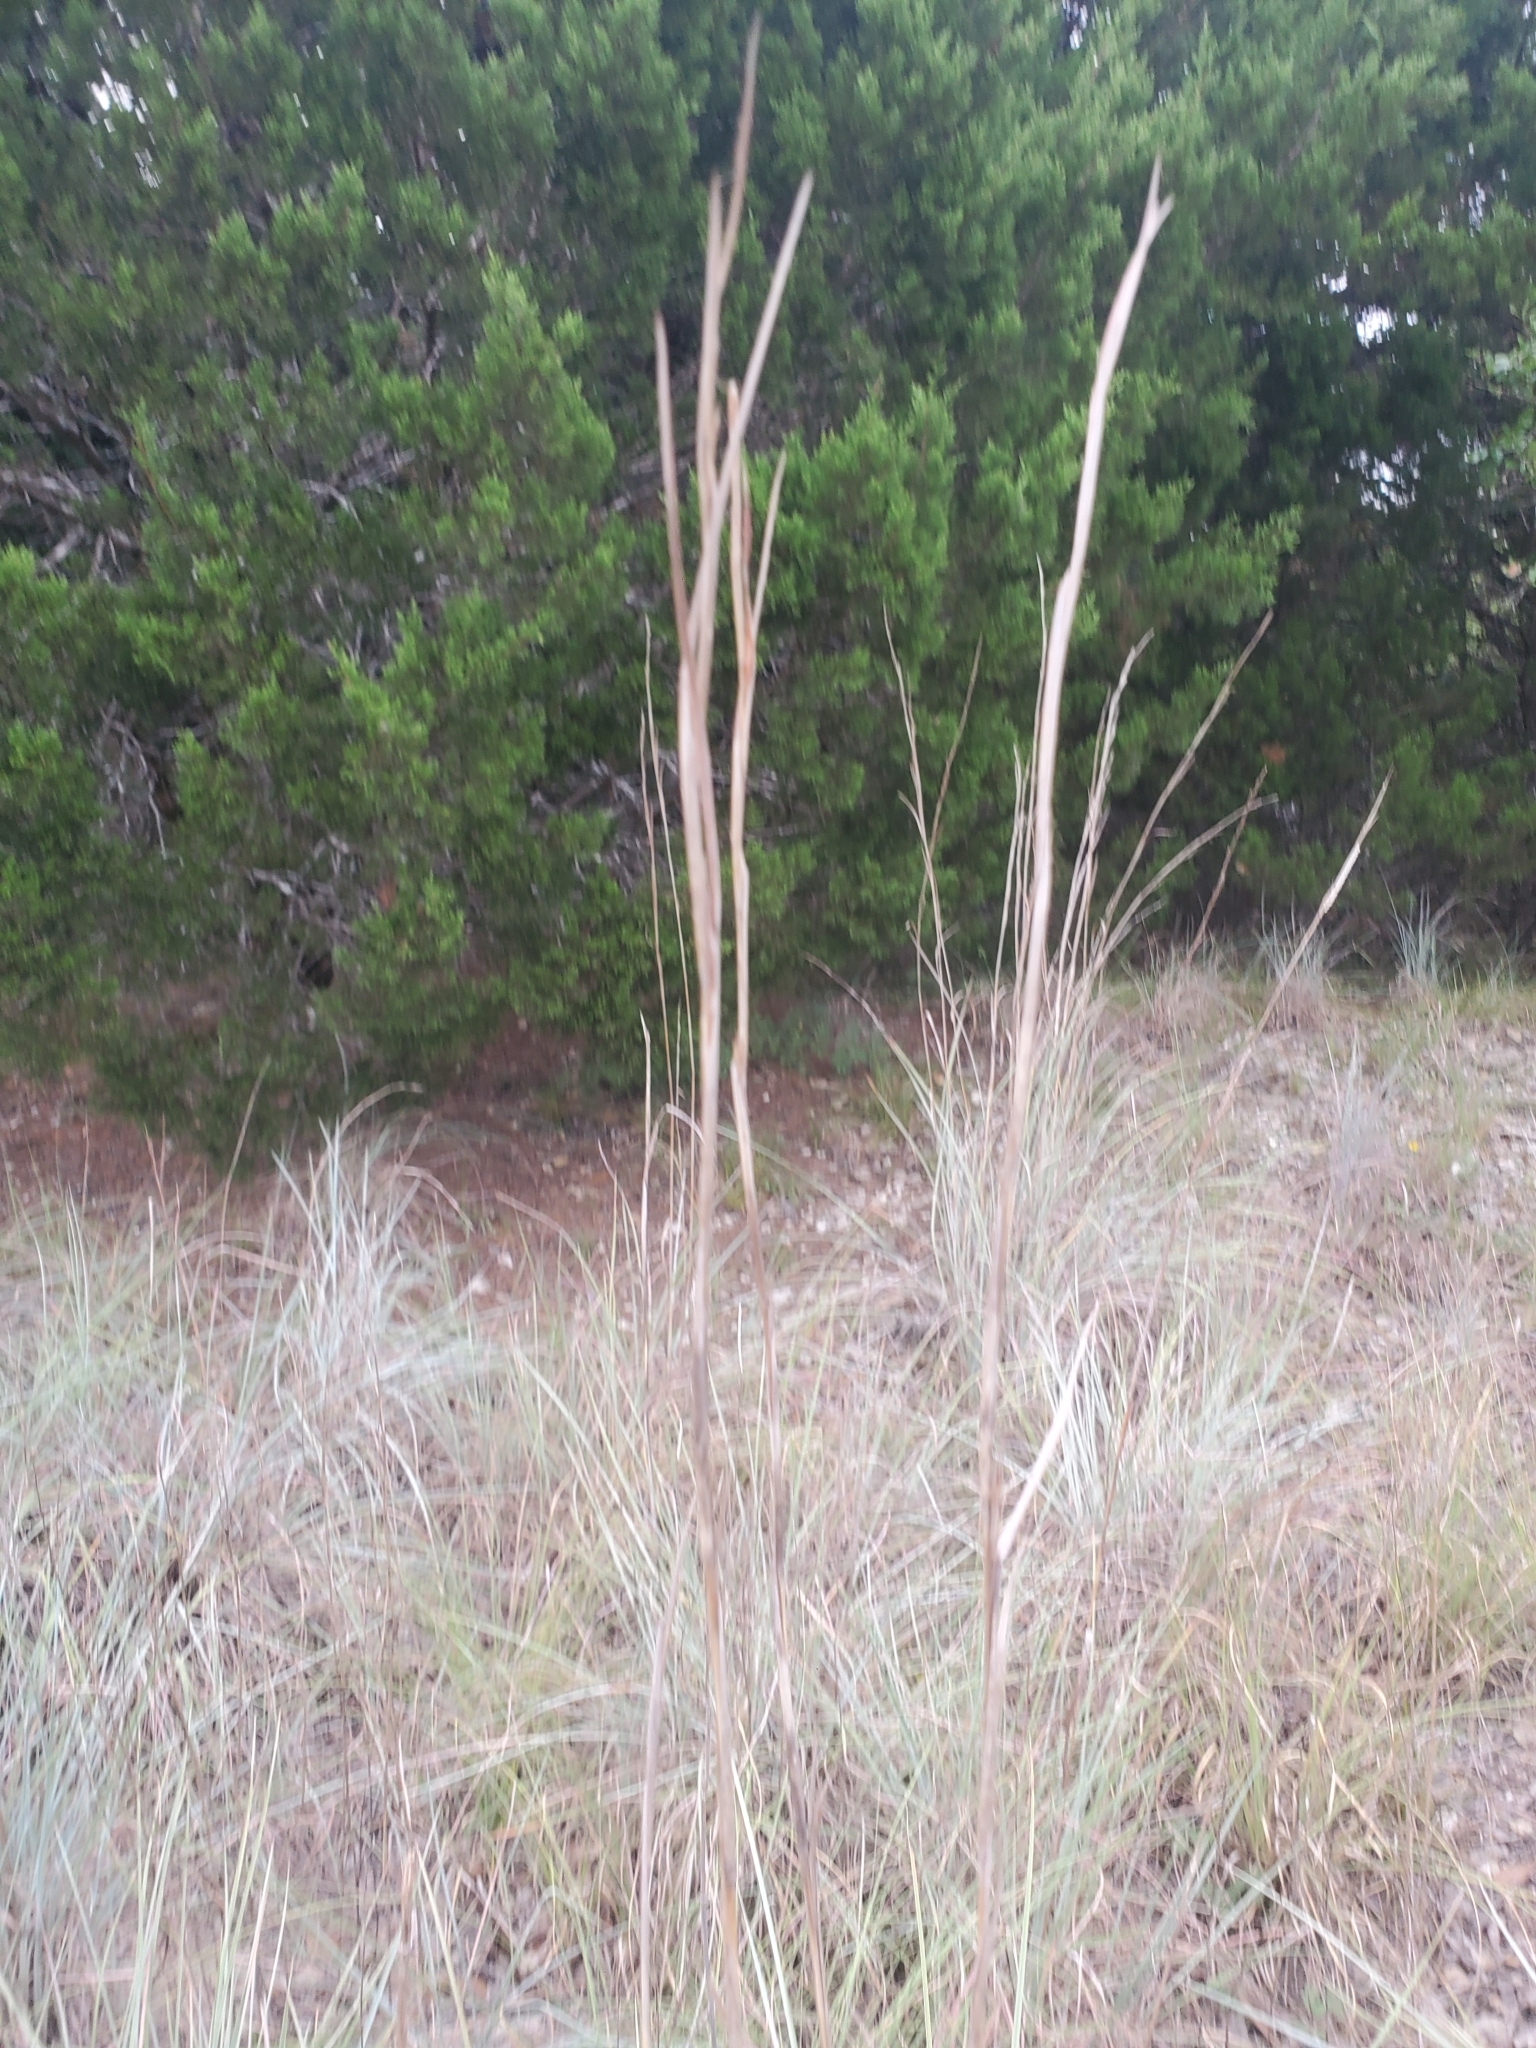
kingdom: Plantae
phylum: Tracheophyta
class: Liliopsida
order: Poales
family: Poaceae
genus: Schizachyrium
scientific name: Schizachyrium scoparium
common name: Little bluestem
